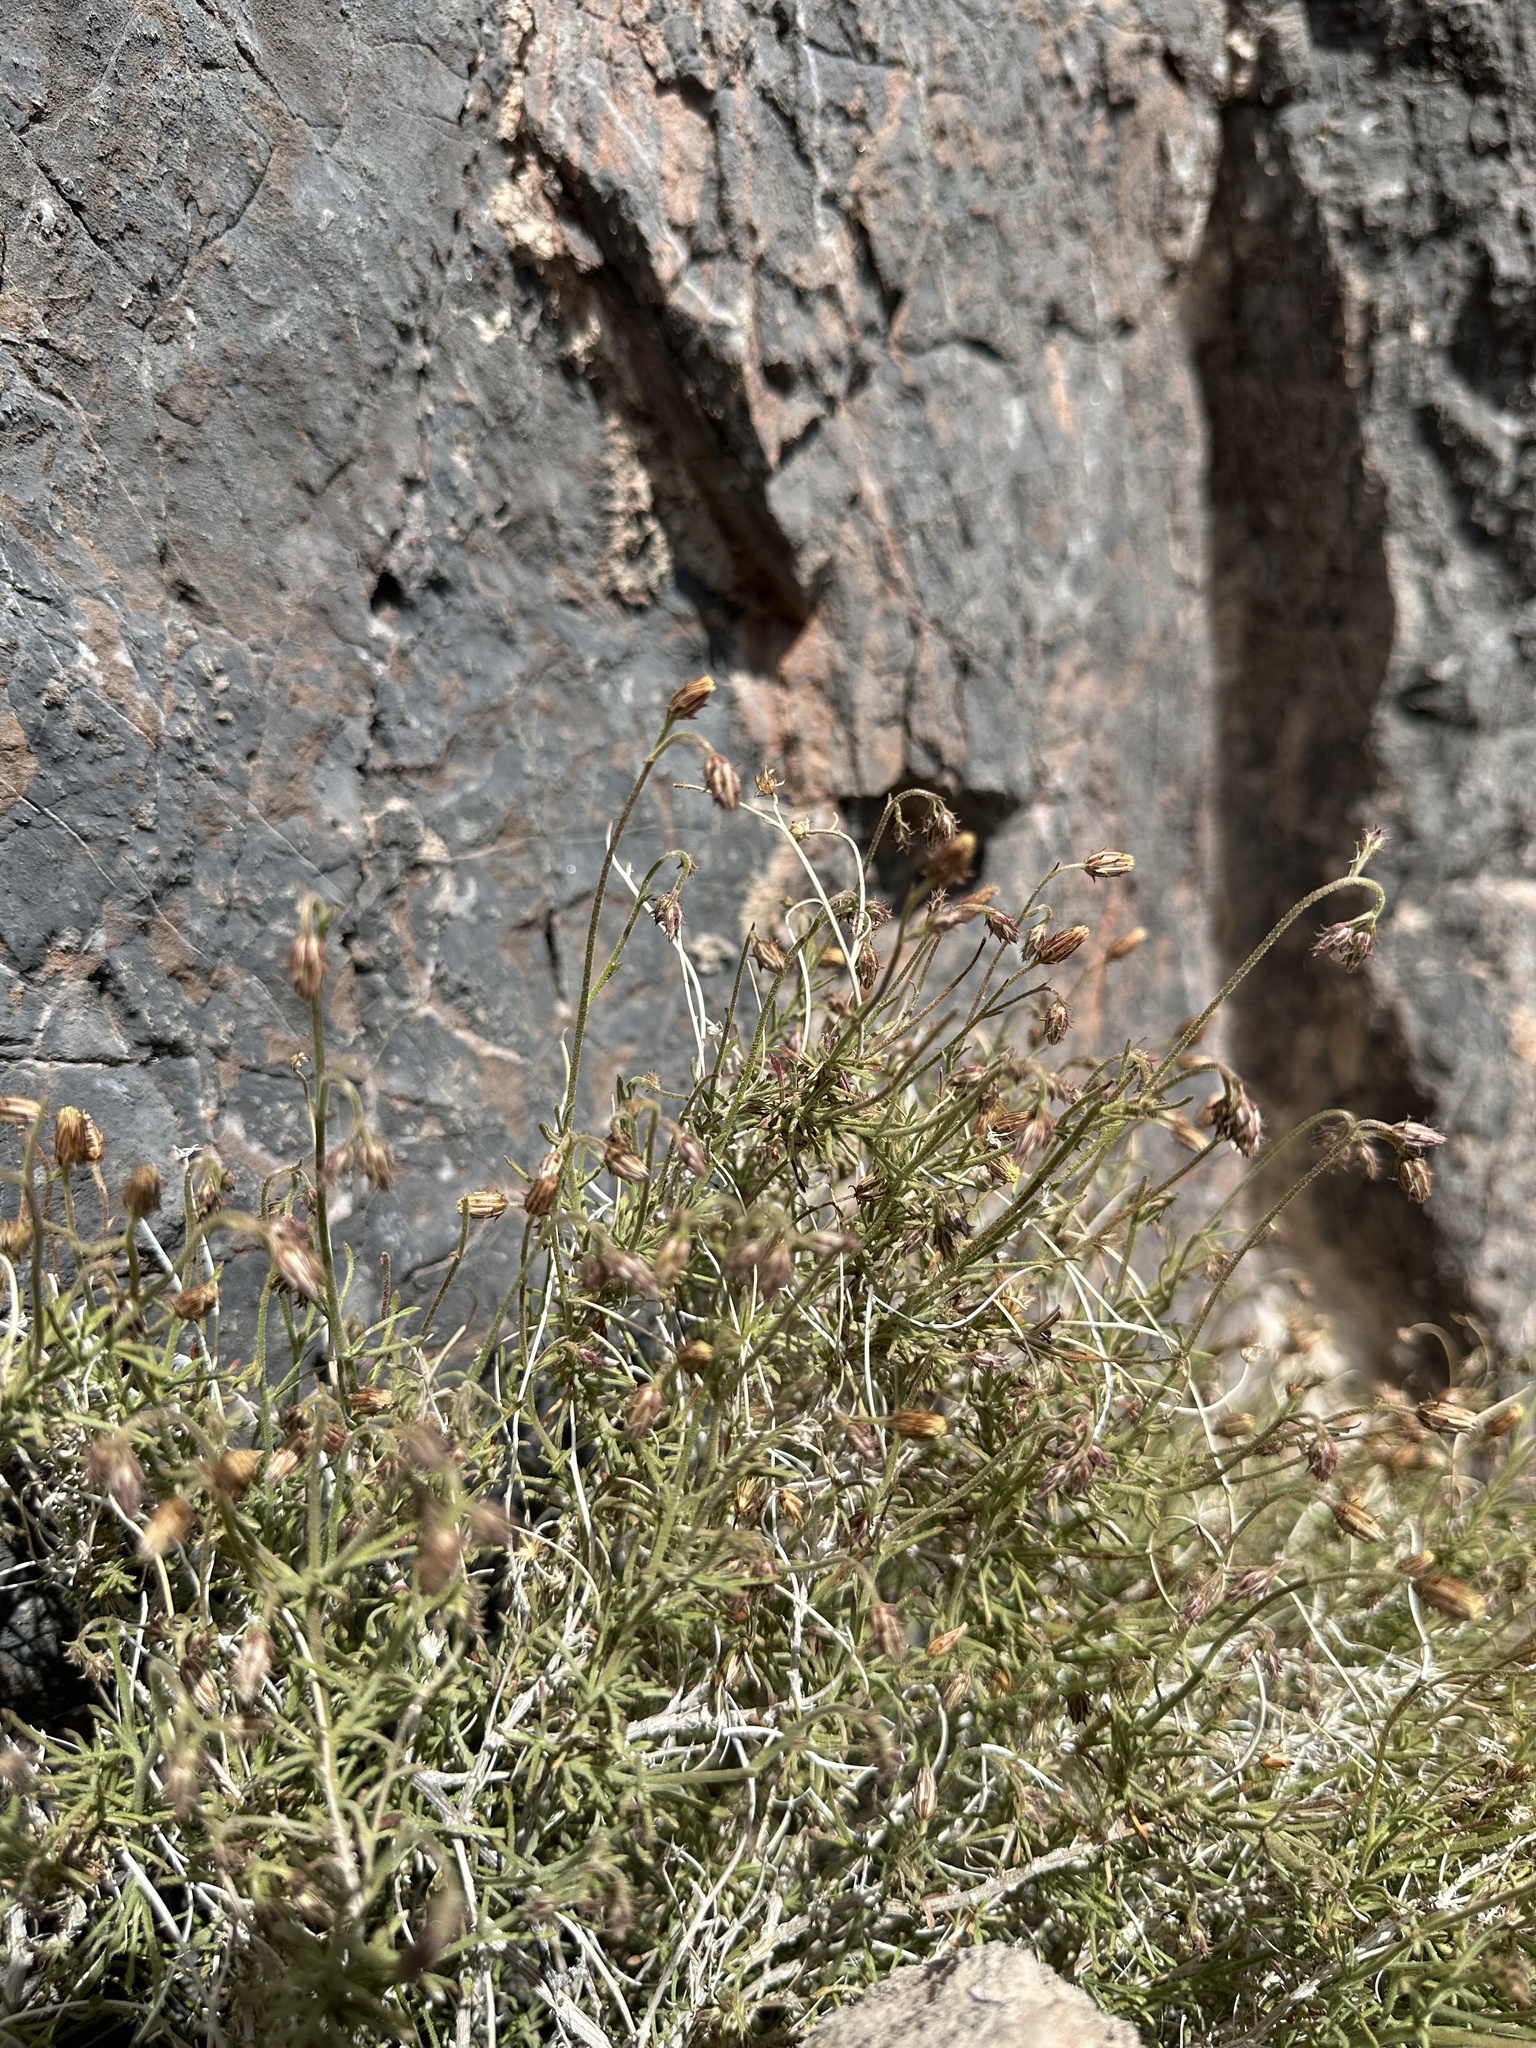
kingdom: Plantae
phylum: Tracheophyta
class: Magnoliopsida
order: Asterales
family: Asteraceae
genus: Pleurocoronis
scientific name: Pleurocoronis pluriseta
